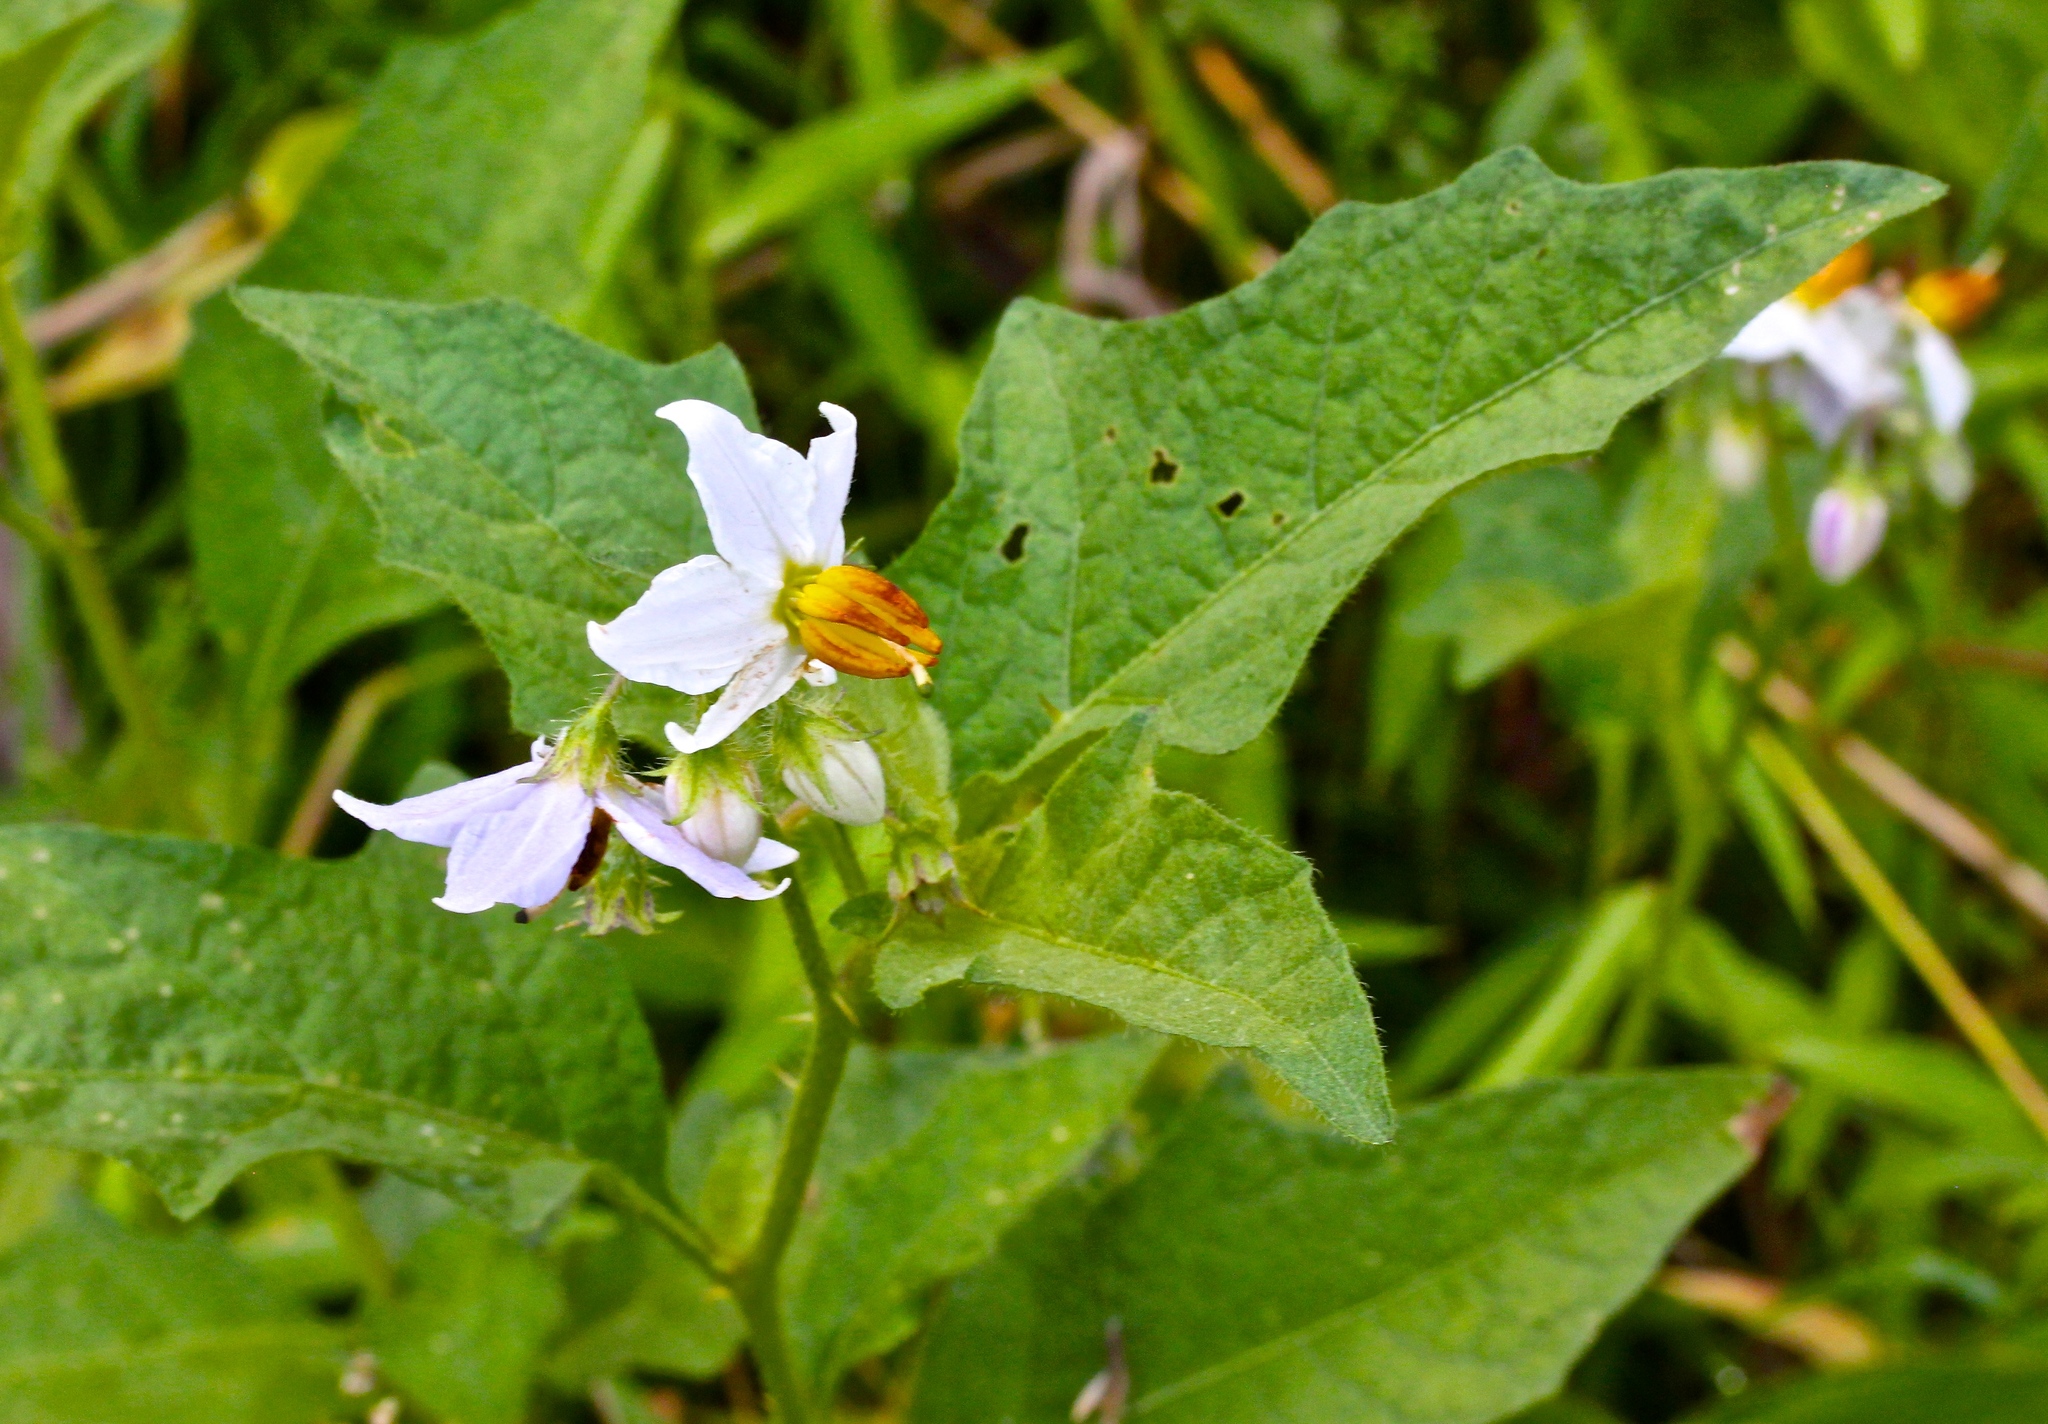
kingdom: Plantae
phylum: Tracheophyta
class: Magnoliopsida
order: Solanales
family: Solanaceae
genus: Solanum
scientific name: Solanum carolinense
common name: Horse-nettle
